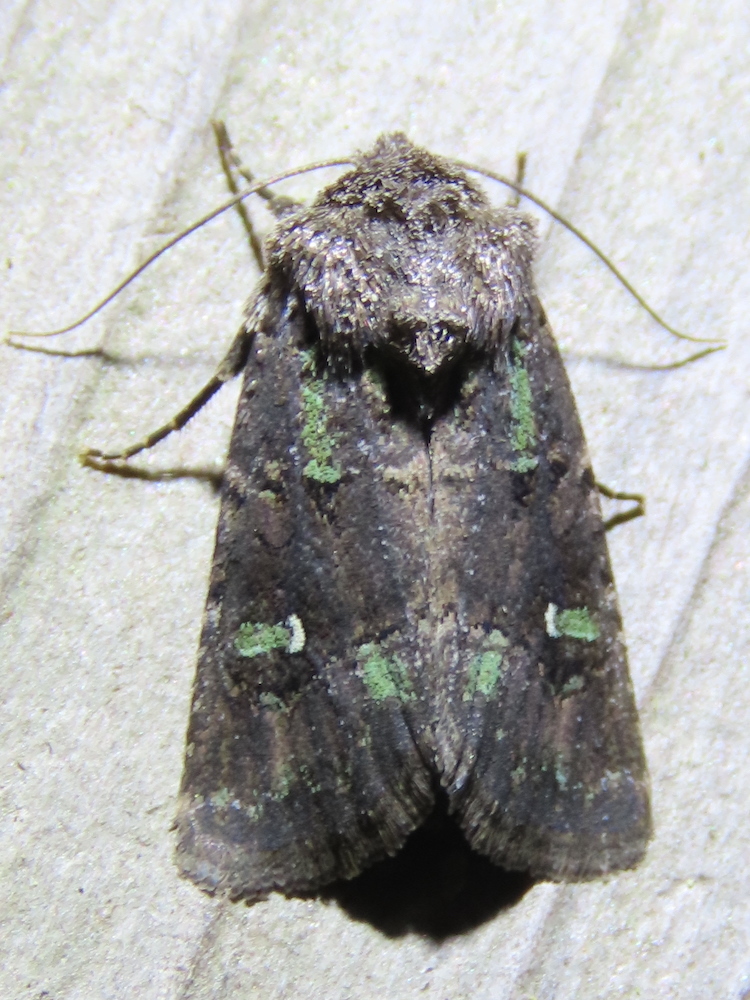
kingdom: Animalia
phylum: Arthropoda
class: Insecta
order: Lepidoptera
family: Noctuidae
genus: Lacinipolia
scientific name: Lacinipolia renigera
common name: Kidney-spotted minor
